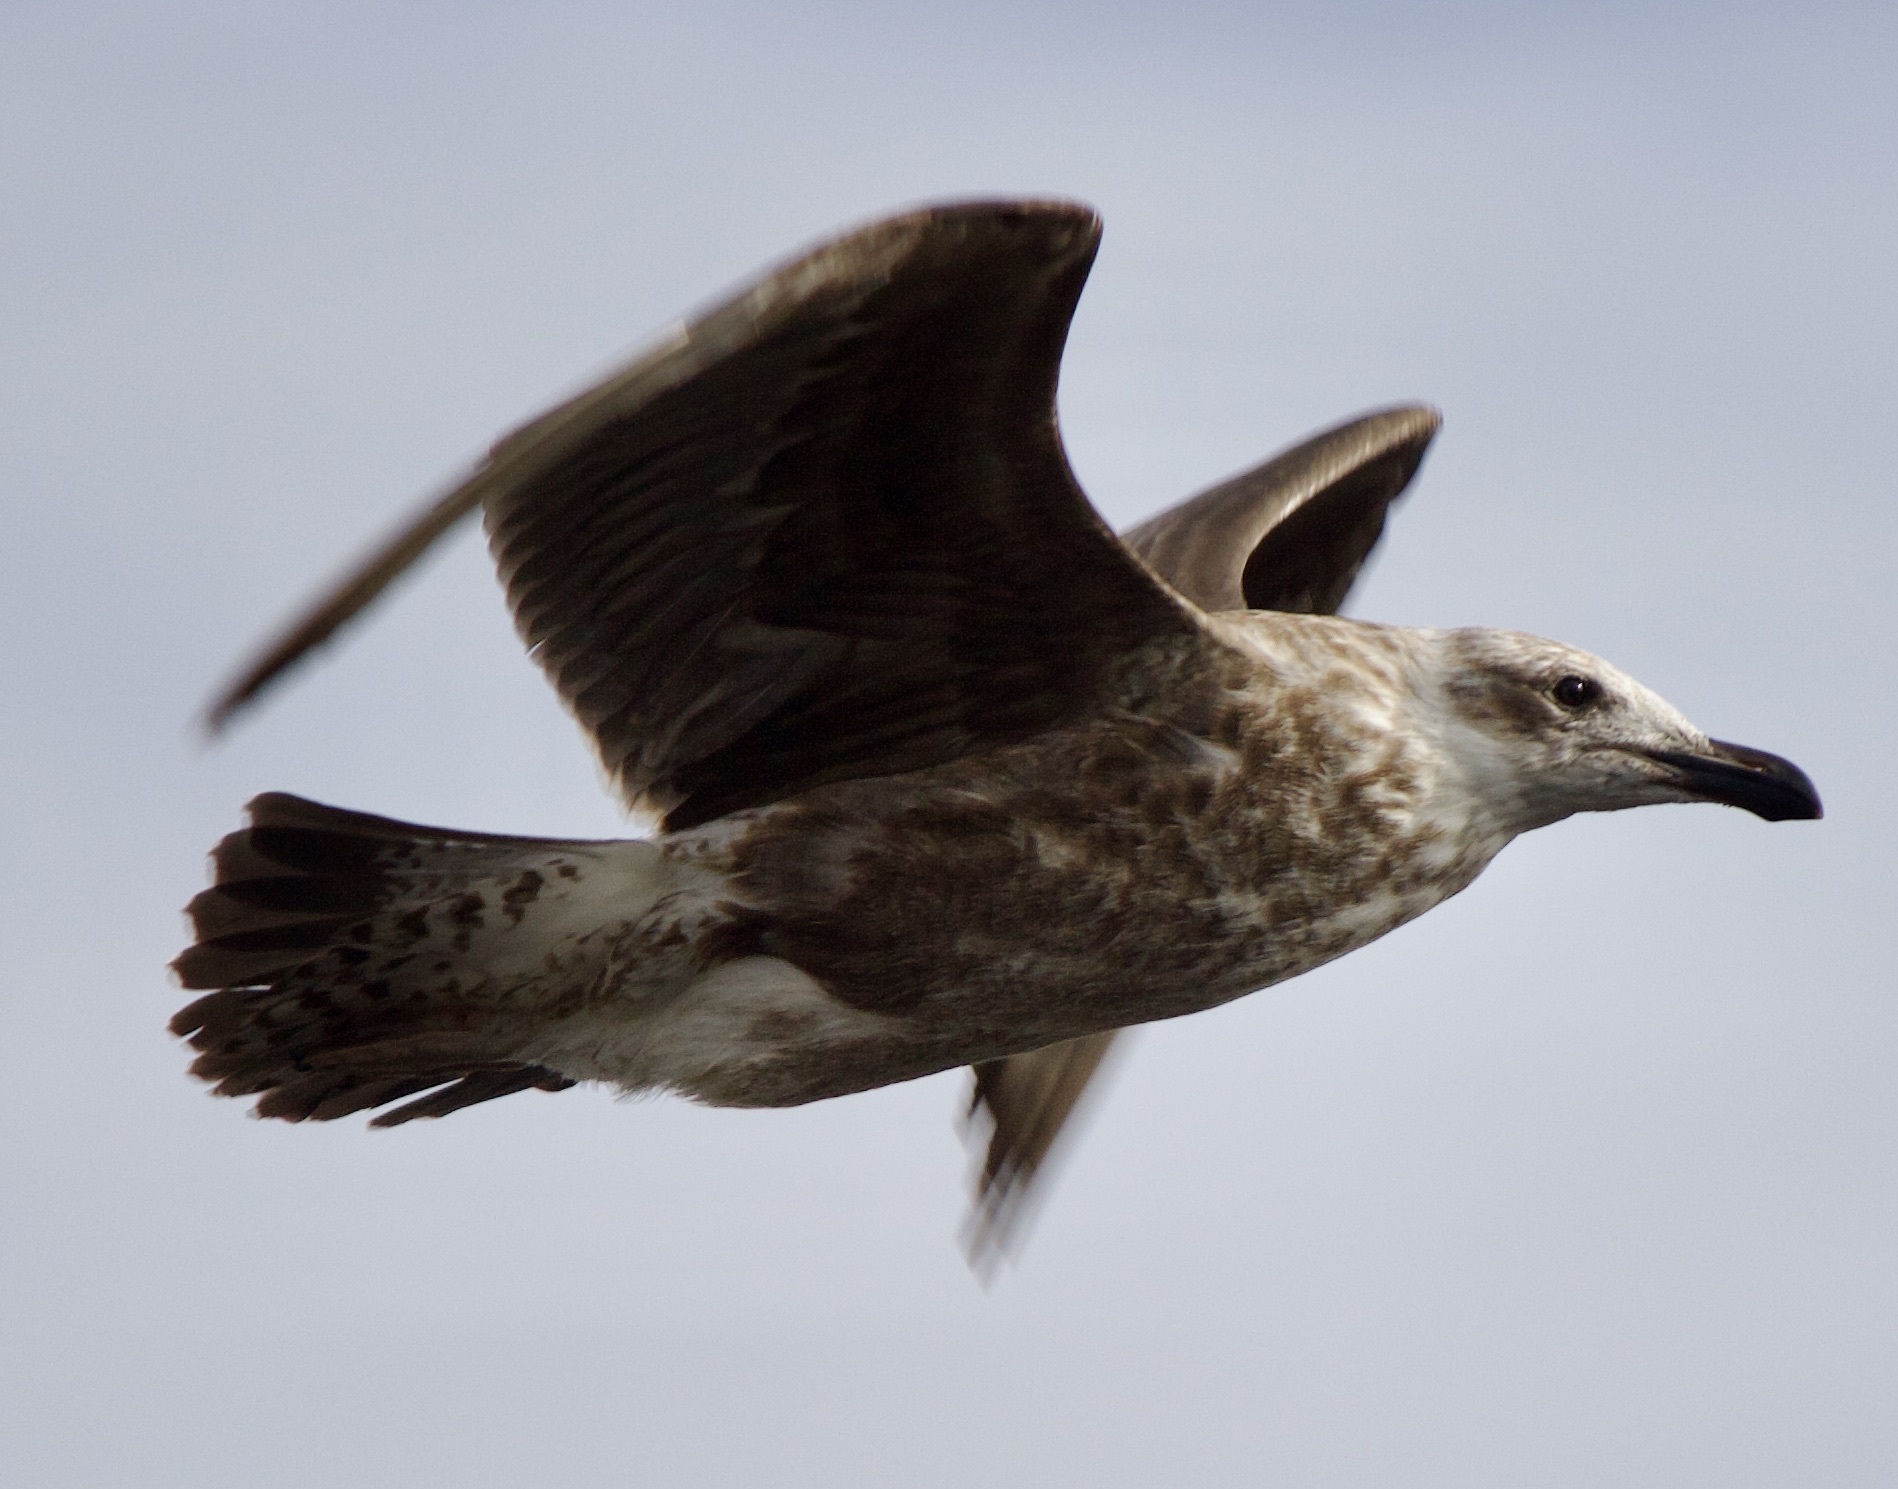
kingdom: Animalia
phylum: Chordata
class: Aves
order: Charadriiformes
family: Laridae
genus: Larus
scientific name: Larus dominicanus
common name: Kelp gull
